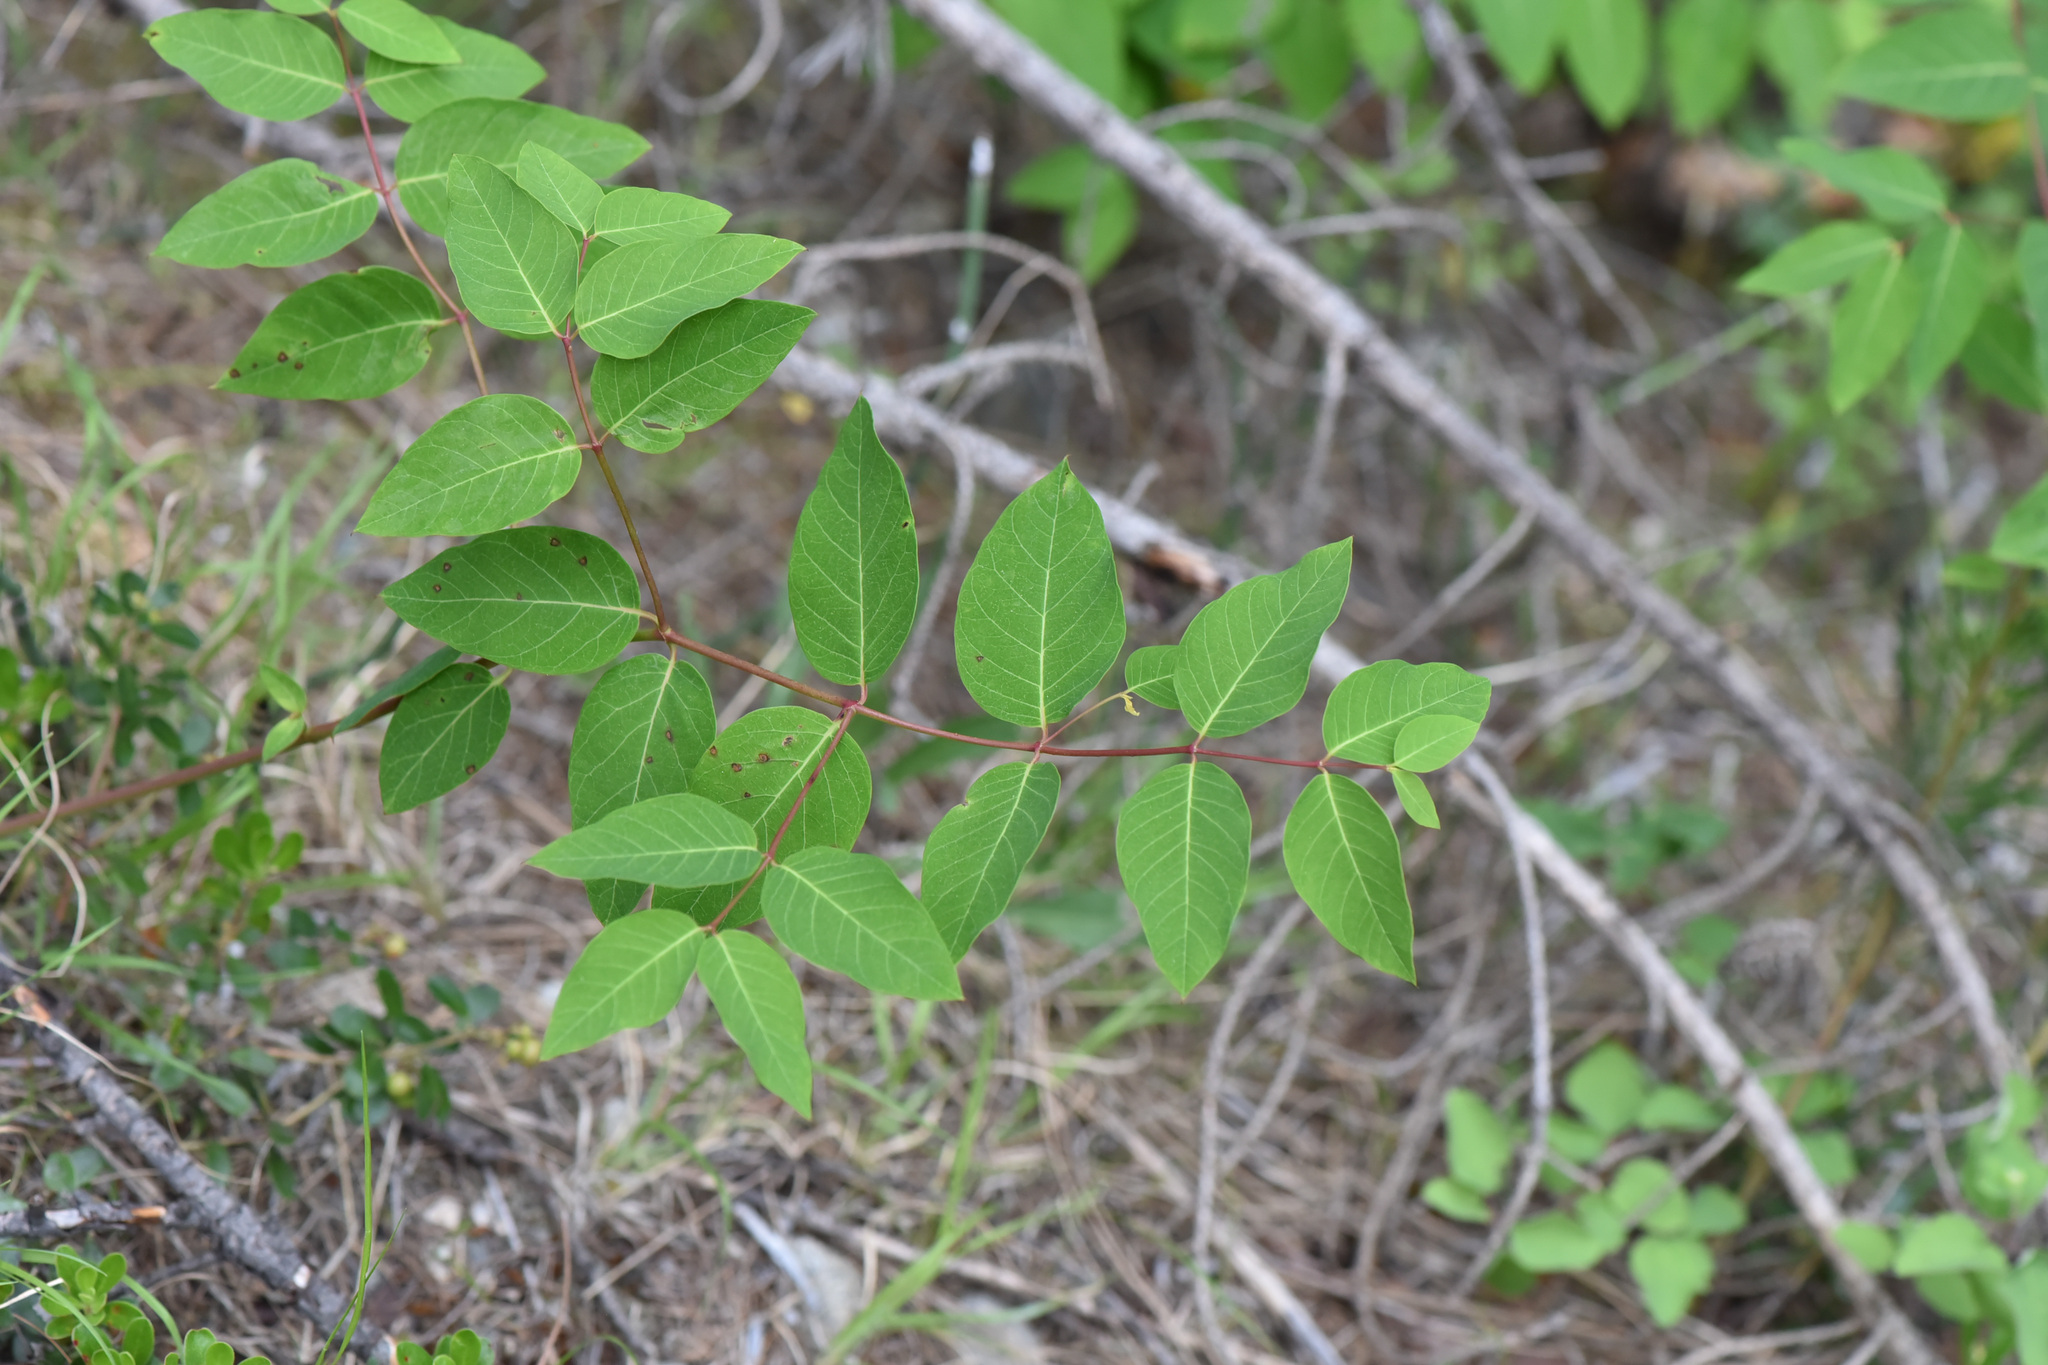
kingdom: Plantae
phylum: Tracheophyta
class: Magnoliopsida
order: Gentianales
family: Apocynaceae
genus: Apocynum
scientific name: Apocynum androsaemifolium
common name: Spreading dogbane
